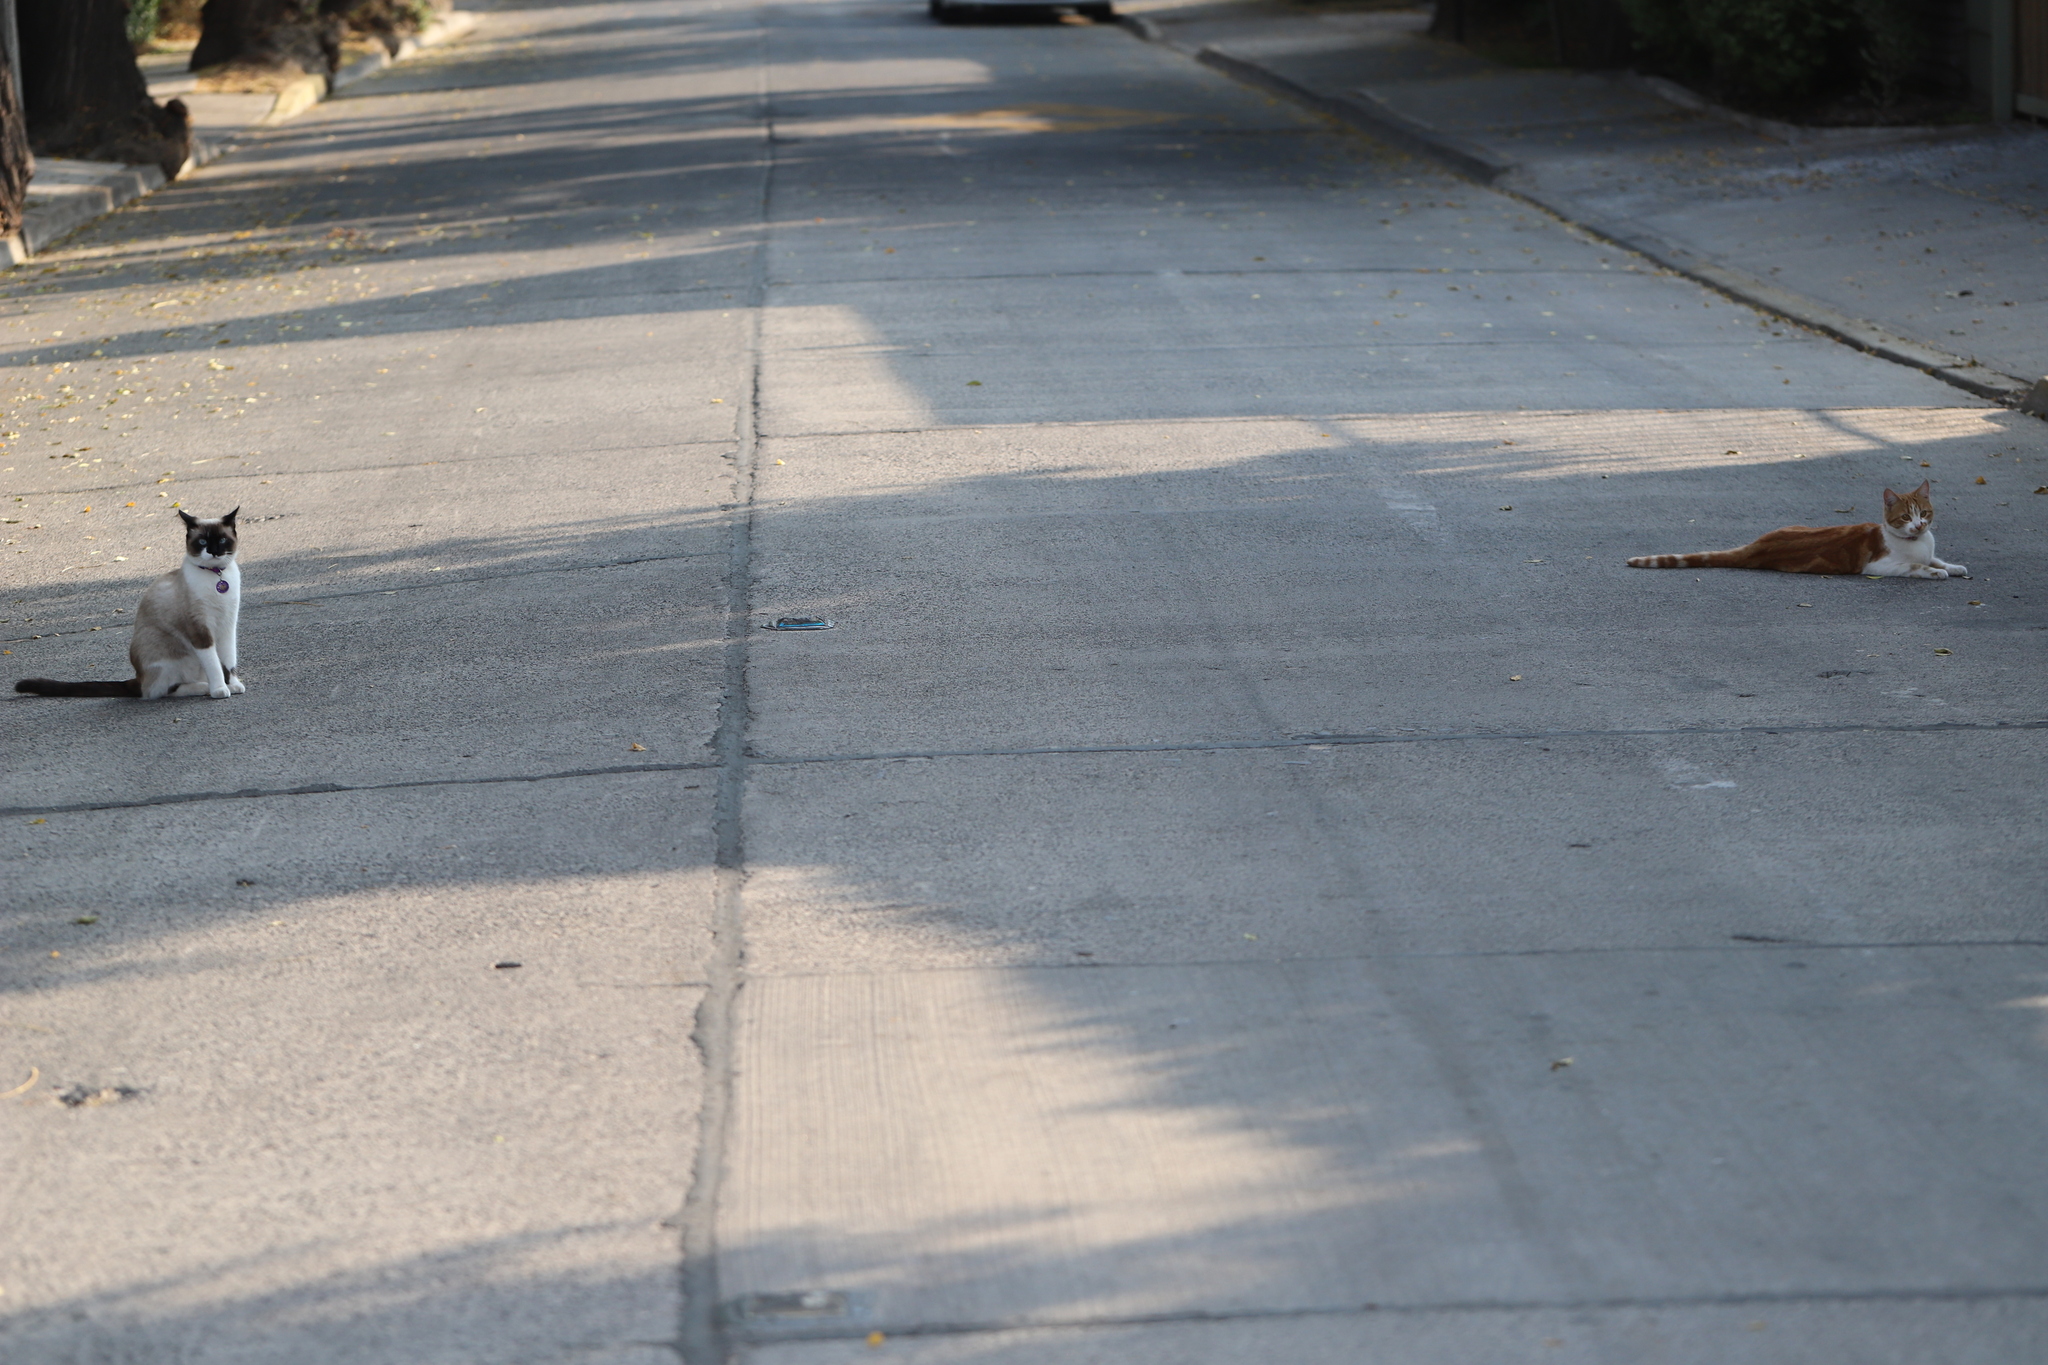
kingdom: Animalia
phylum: Chordata
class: Mammalia
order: Carnivora
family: Felidae
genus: Felis
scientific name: Felis catus
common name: Domestic cat
